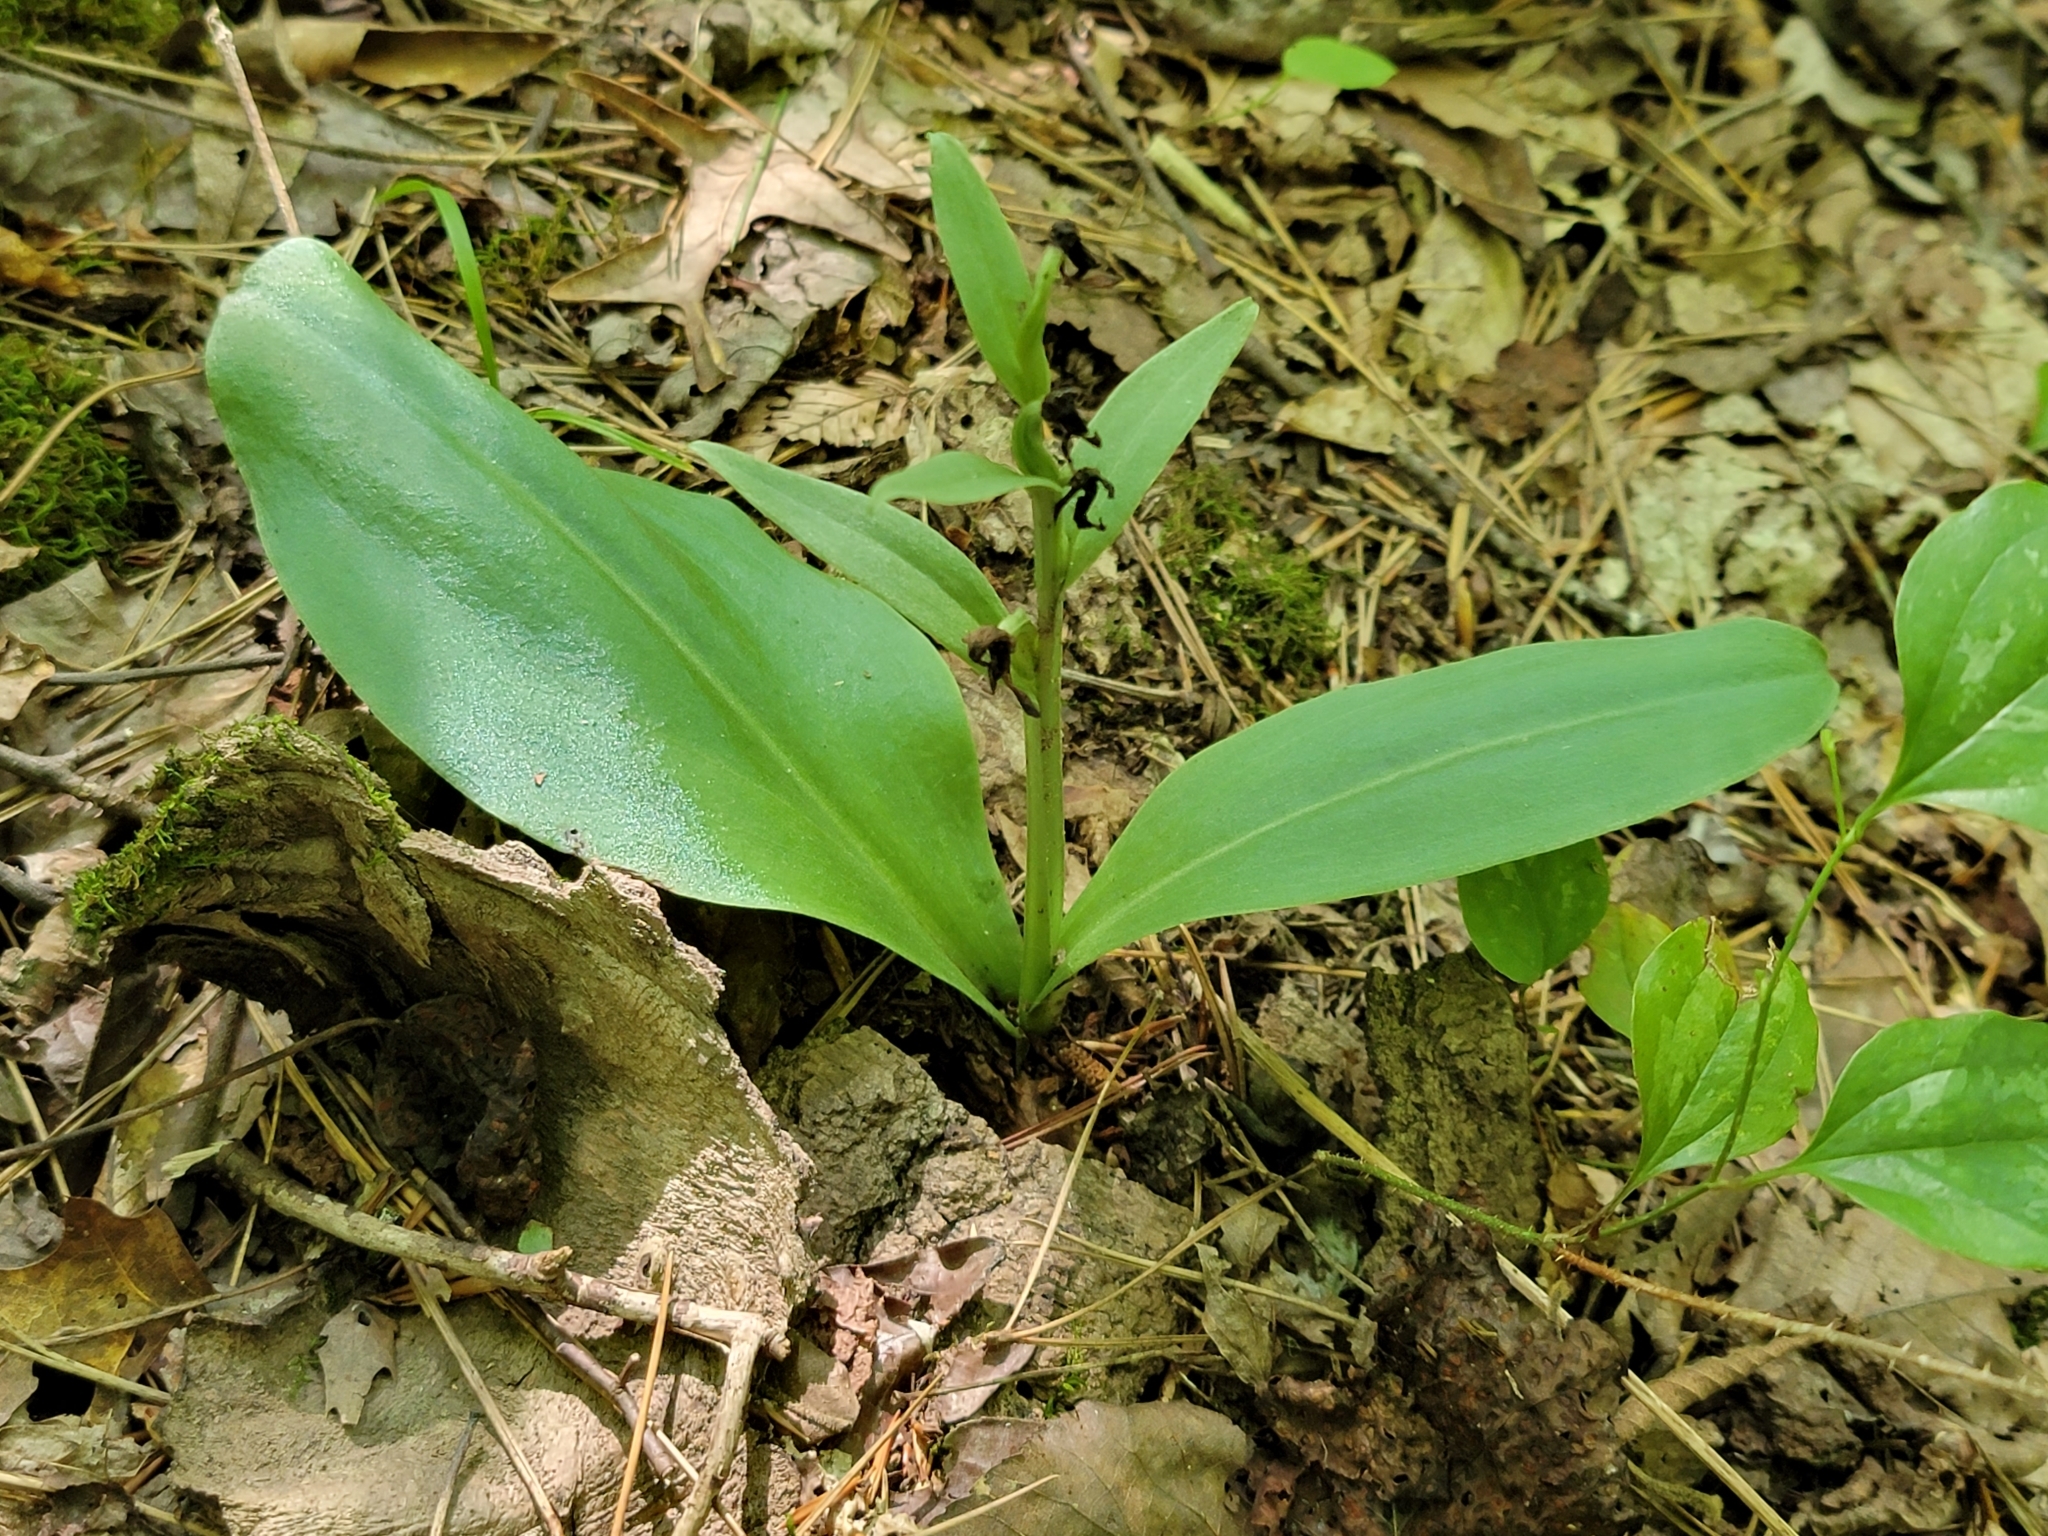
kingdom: Plantae
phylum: Tracheophyta
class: Liliopsida
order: Asparagales
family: Orchidaceae
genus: Galearis
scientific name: Galearis spectabilis
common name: Purple-hooded orchis
